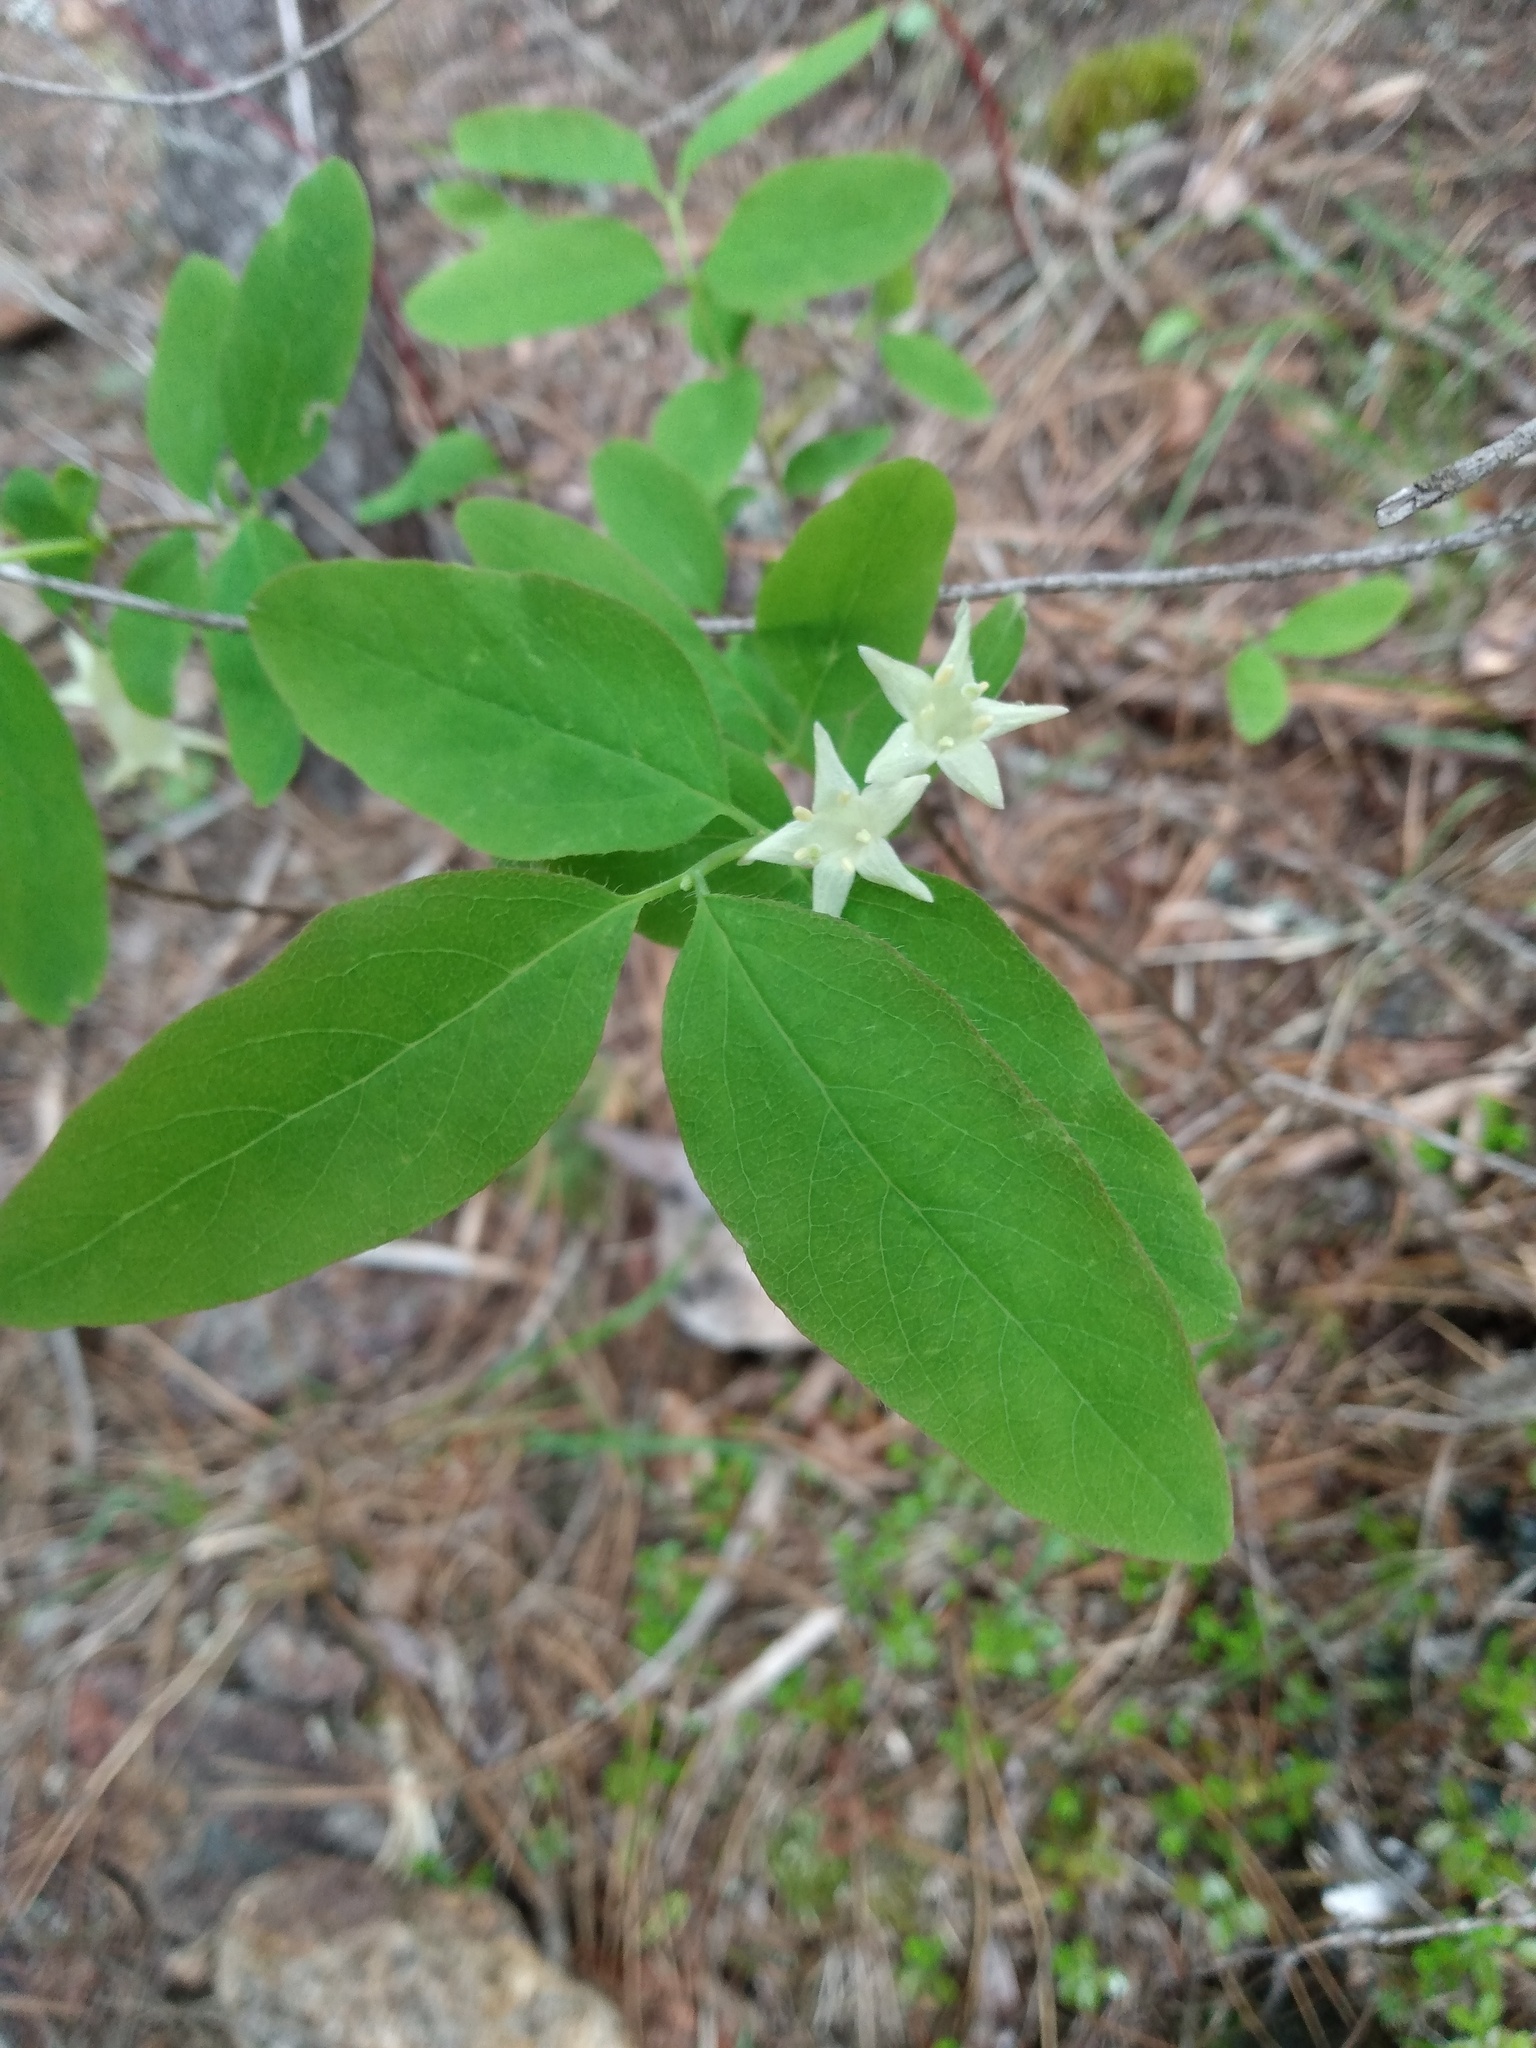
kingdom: Plantae
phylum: Tracheophyta
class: Magnoliopsida
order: Dipsacales
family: Caprifoliaceae
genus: Lonicera
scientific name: Lonicera utahensis
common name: Utah honeysuckle
